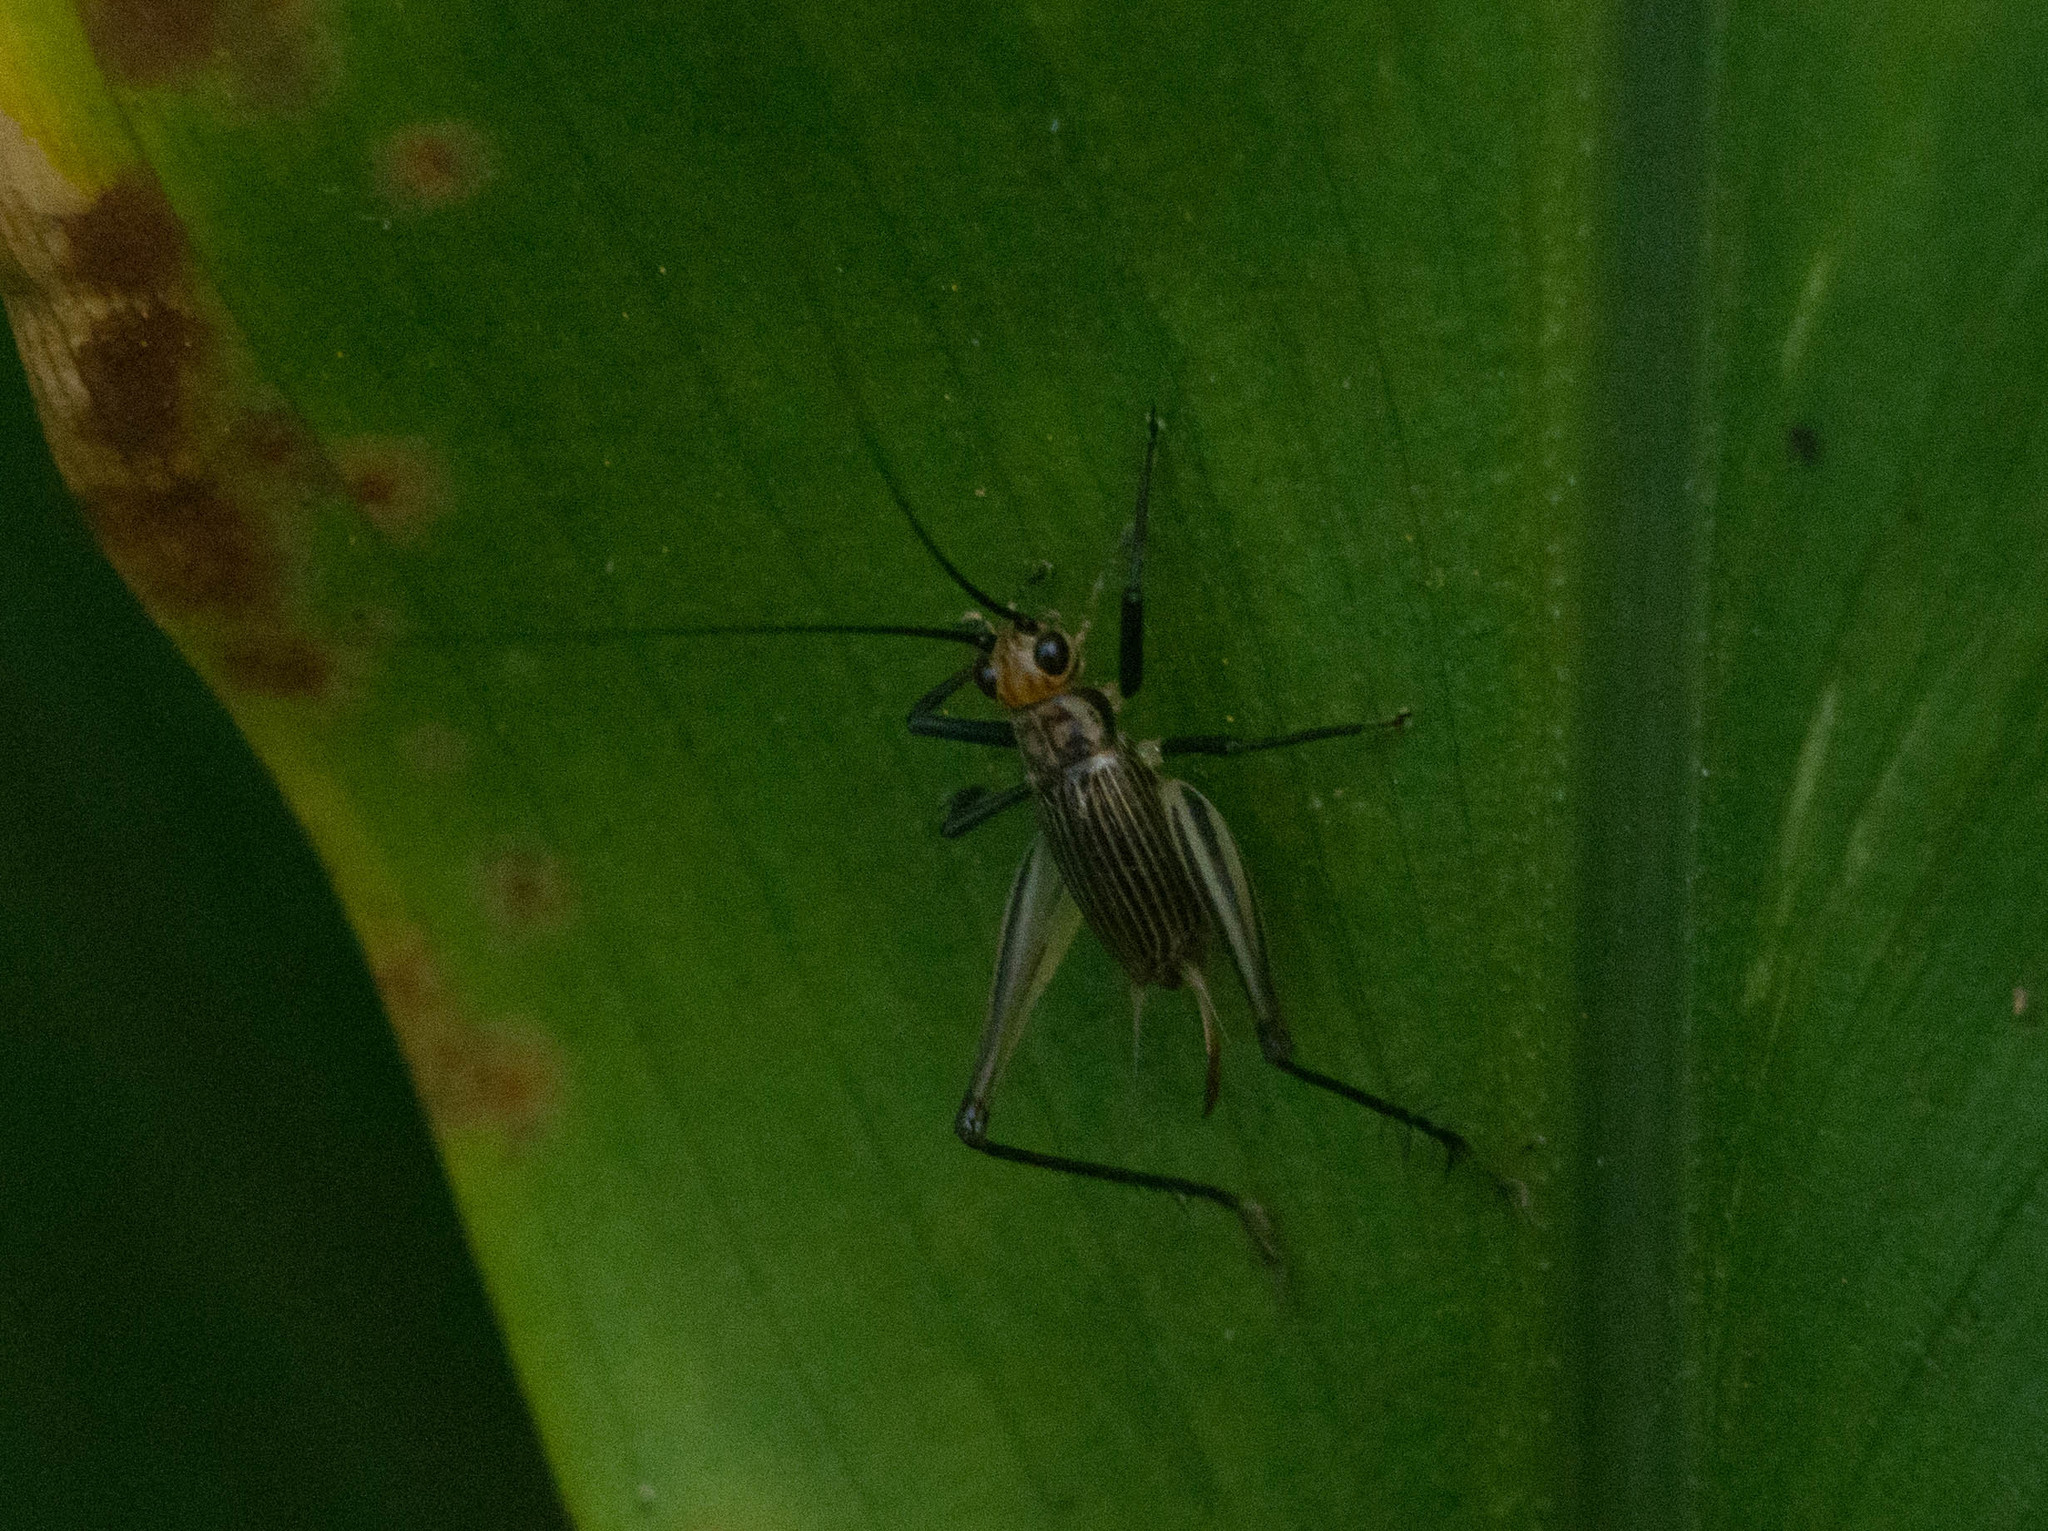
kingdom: Animalia
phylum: Arthropoda
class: Insecta
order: Orthoptera
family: Trigonidiidae
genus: Nanixipha
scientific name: Nanixipha nahoa
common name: Truncated true katydid
